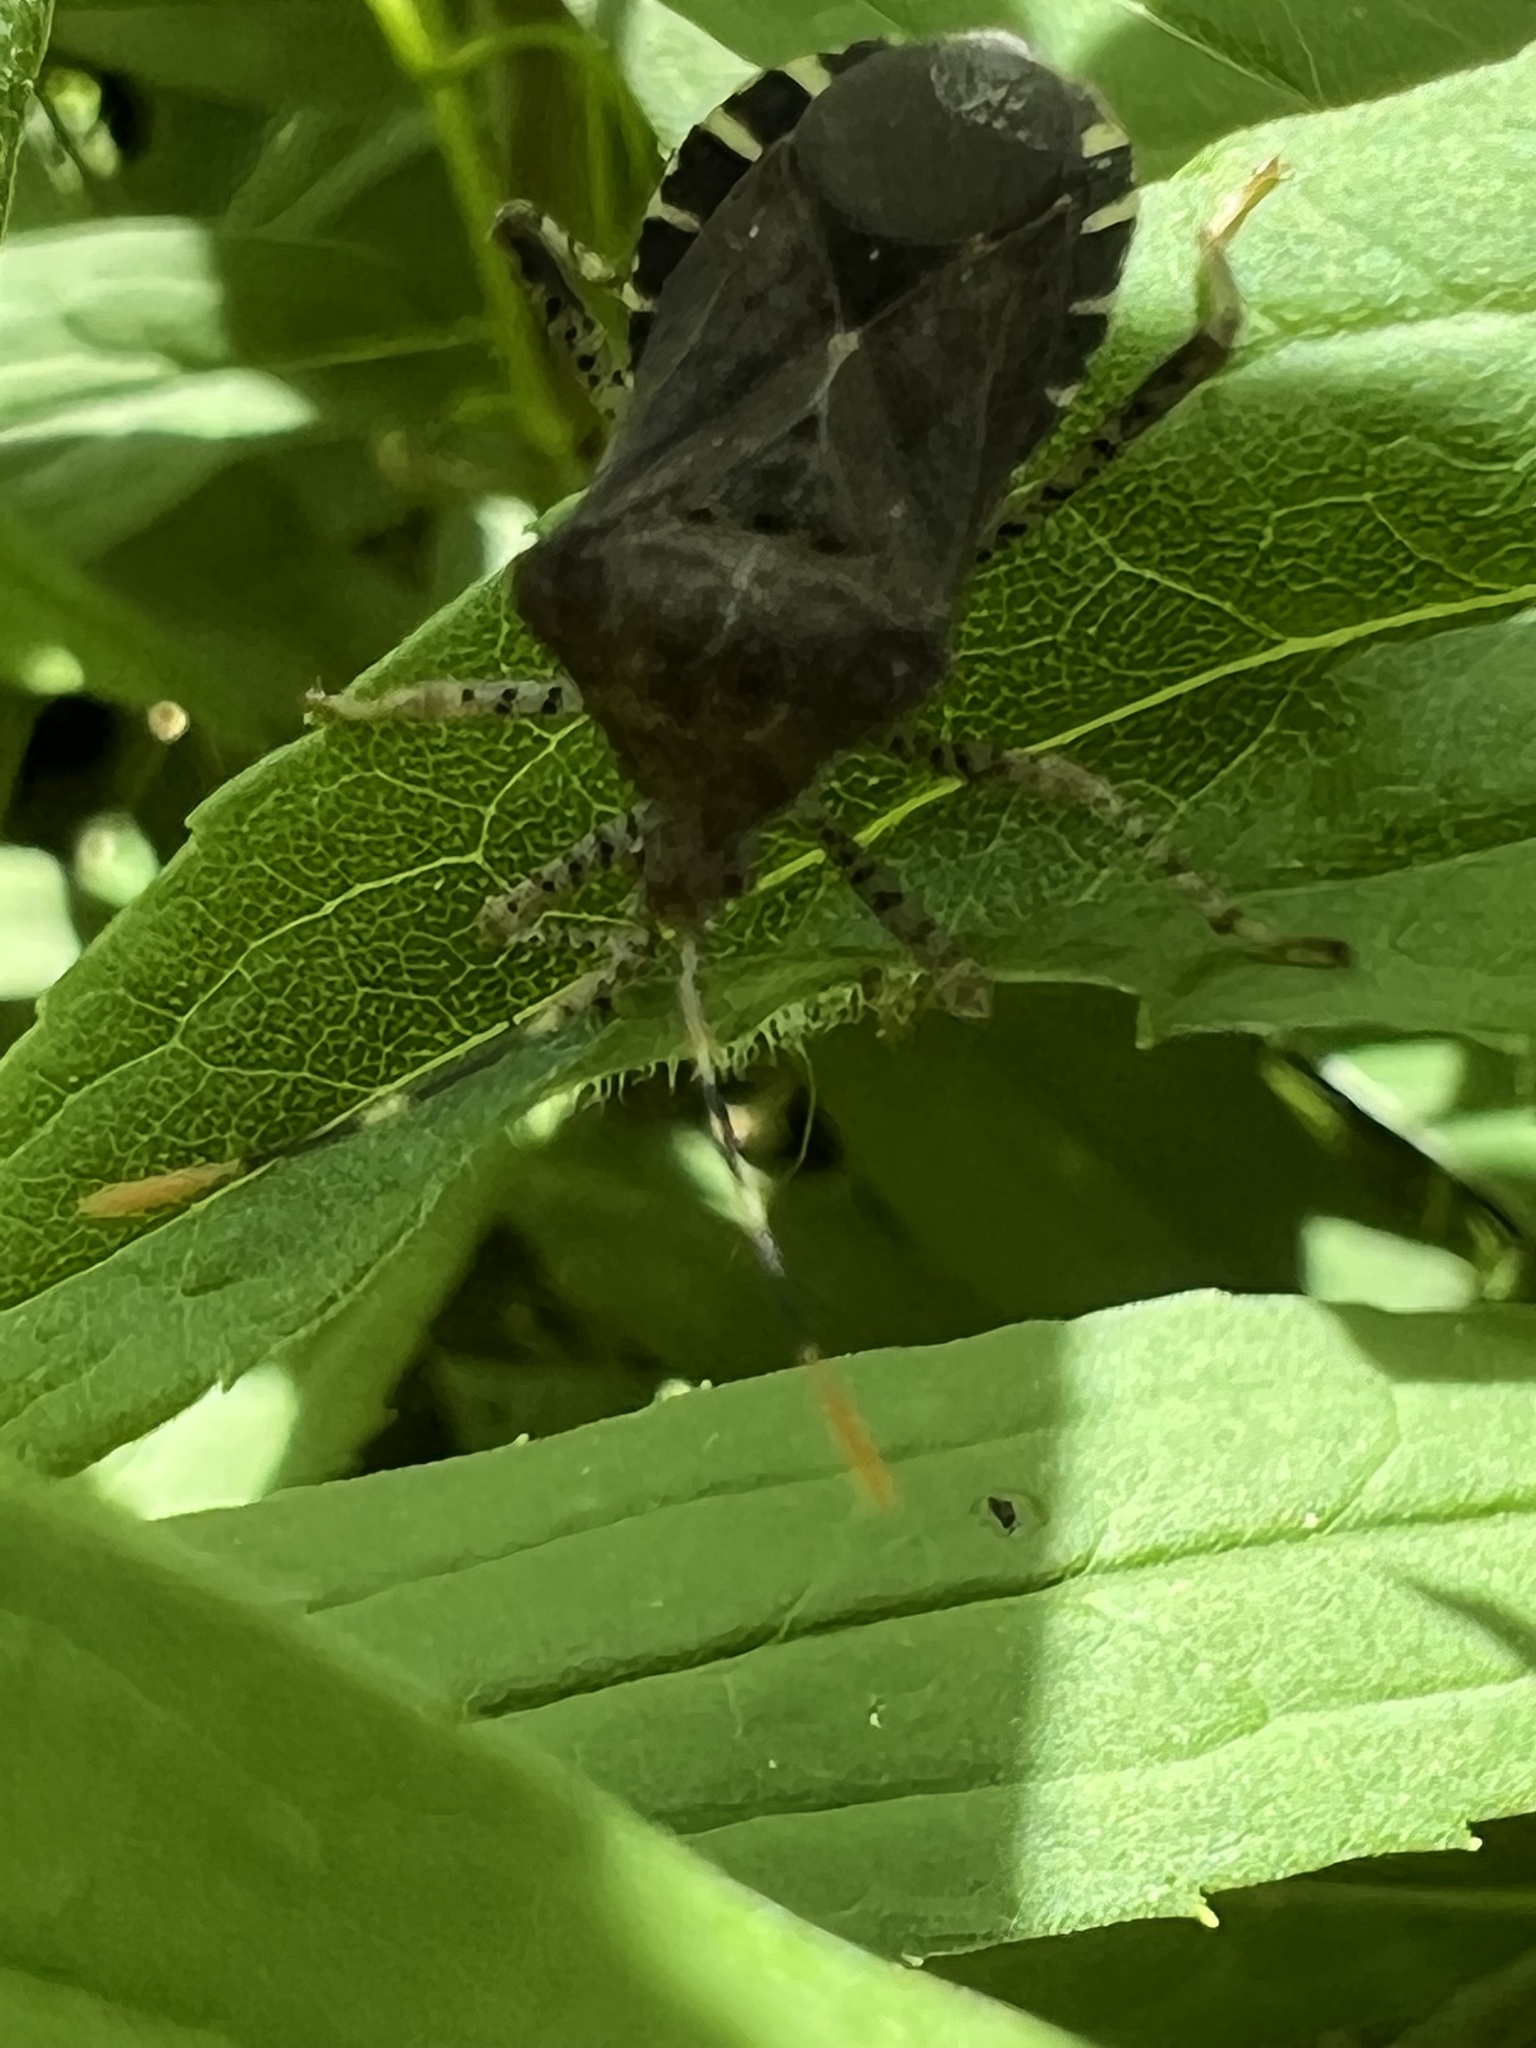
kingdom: Animalia
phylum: Arthropoda
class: Insecta
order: Hemiptera
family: Coreidae
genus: Anasa
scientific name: Anasa armigera
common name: Horned squash bug
